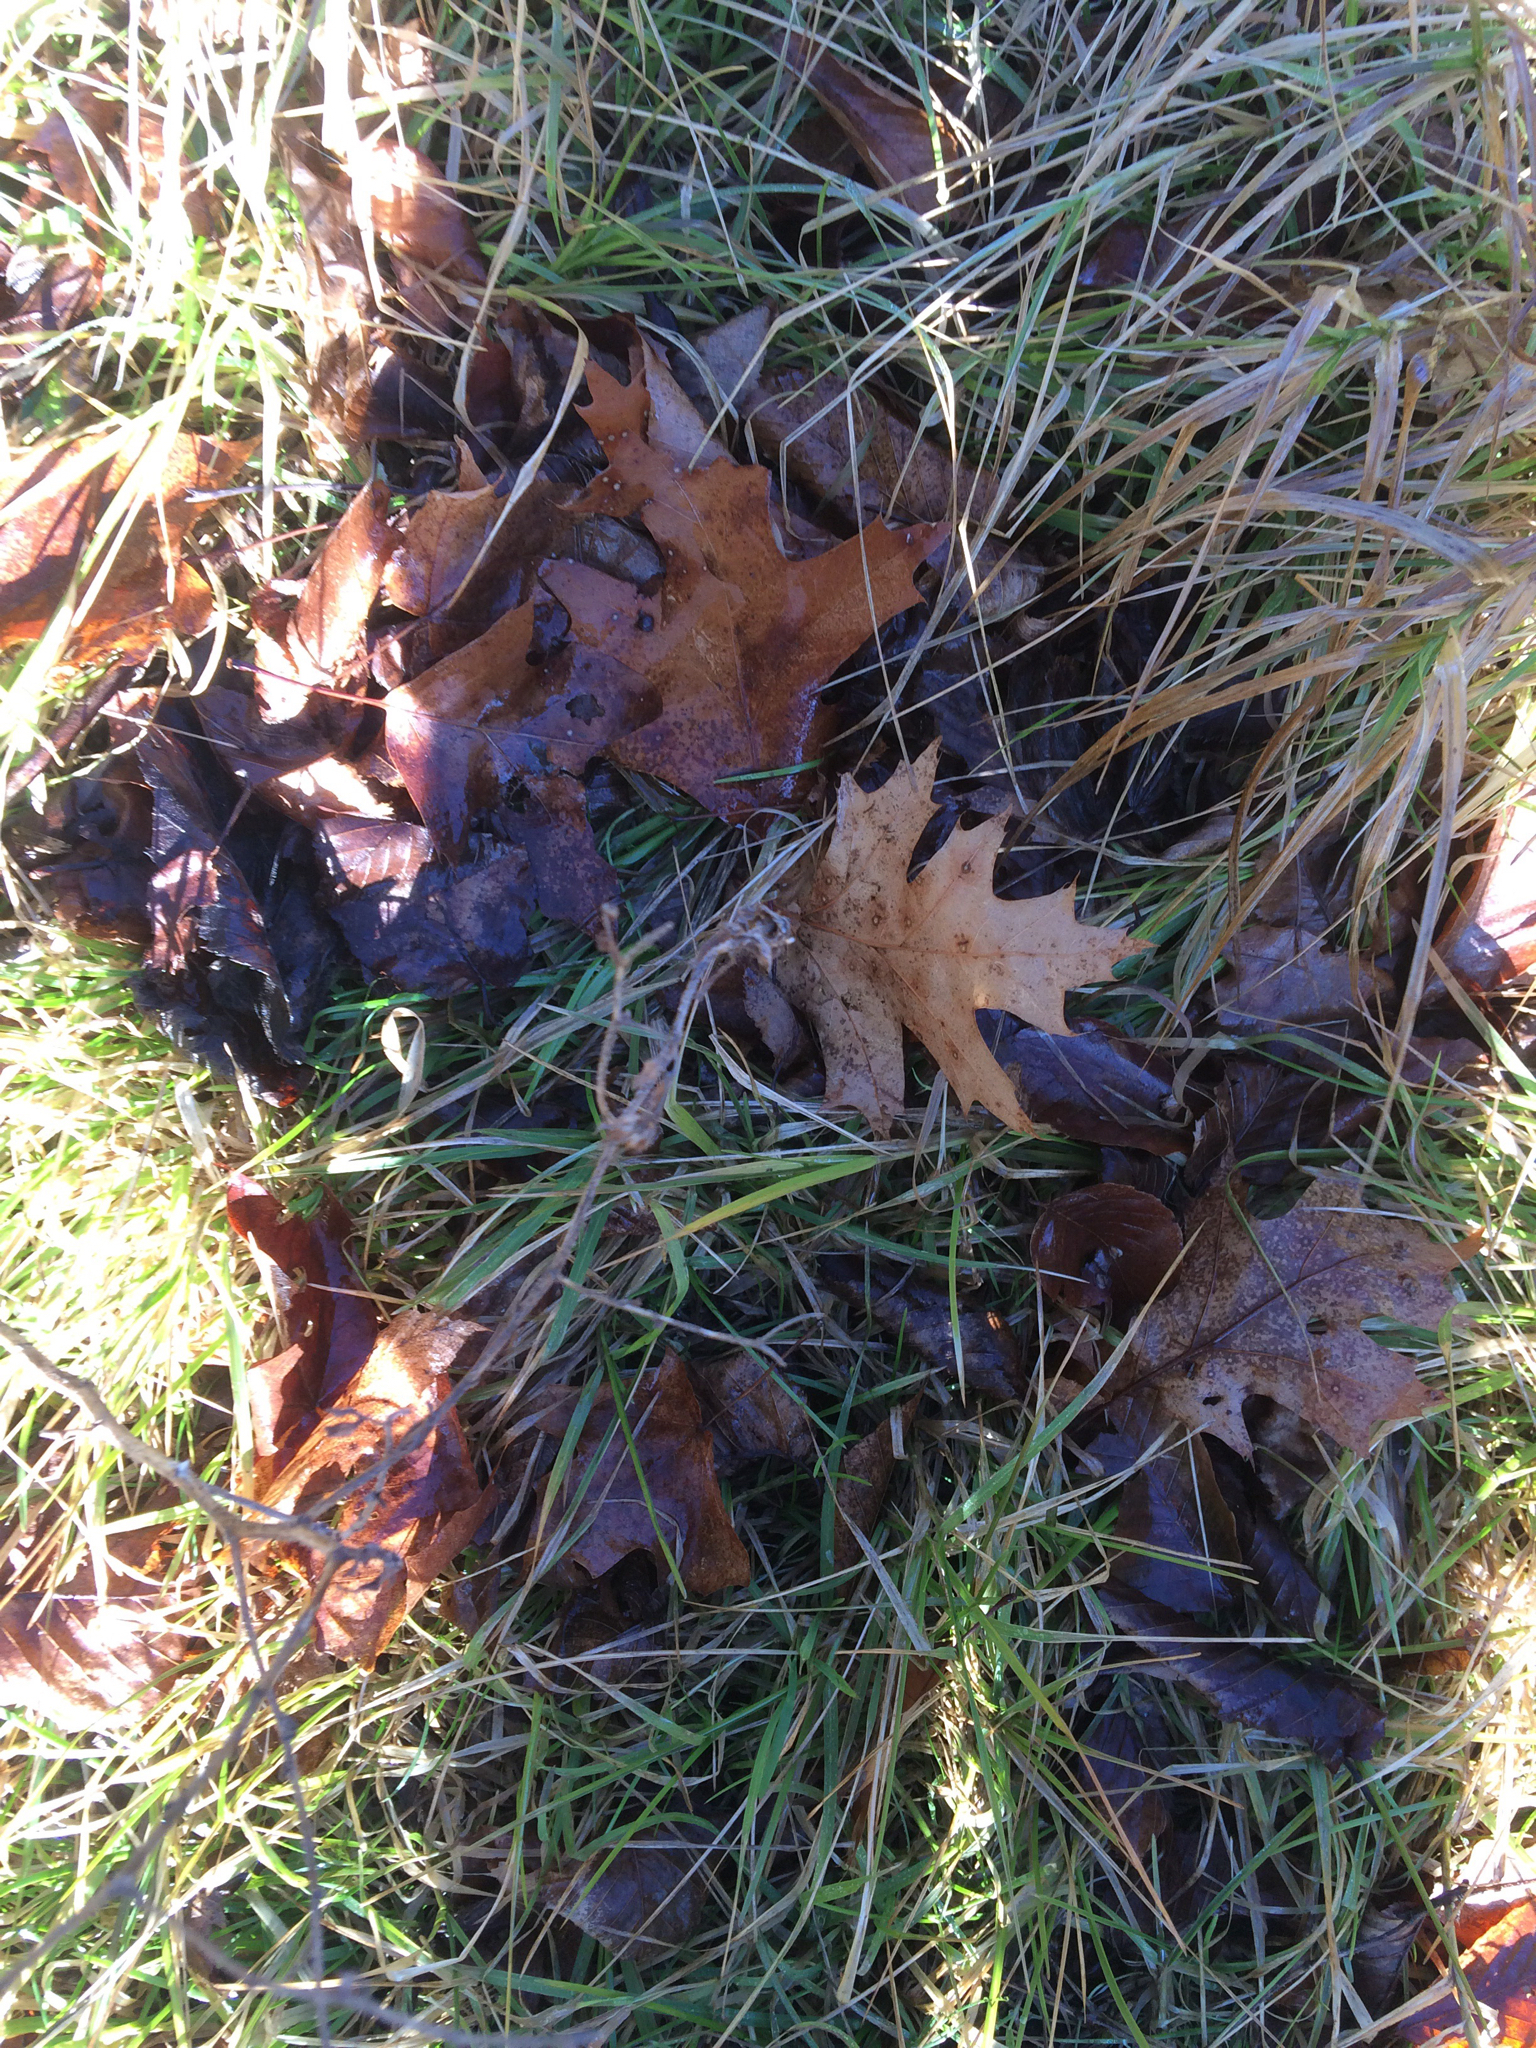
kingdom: Plantae
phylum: Tracheophyta
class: Magnoliopsida
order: Fagales
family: Fagaceae
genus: Quercus
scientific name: Quercus rubra
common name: Red oak
